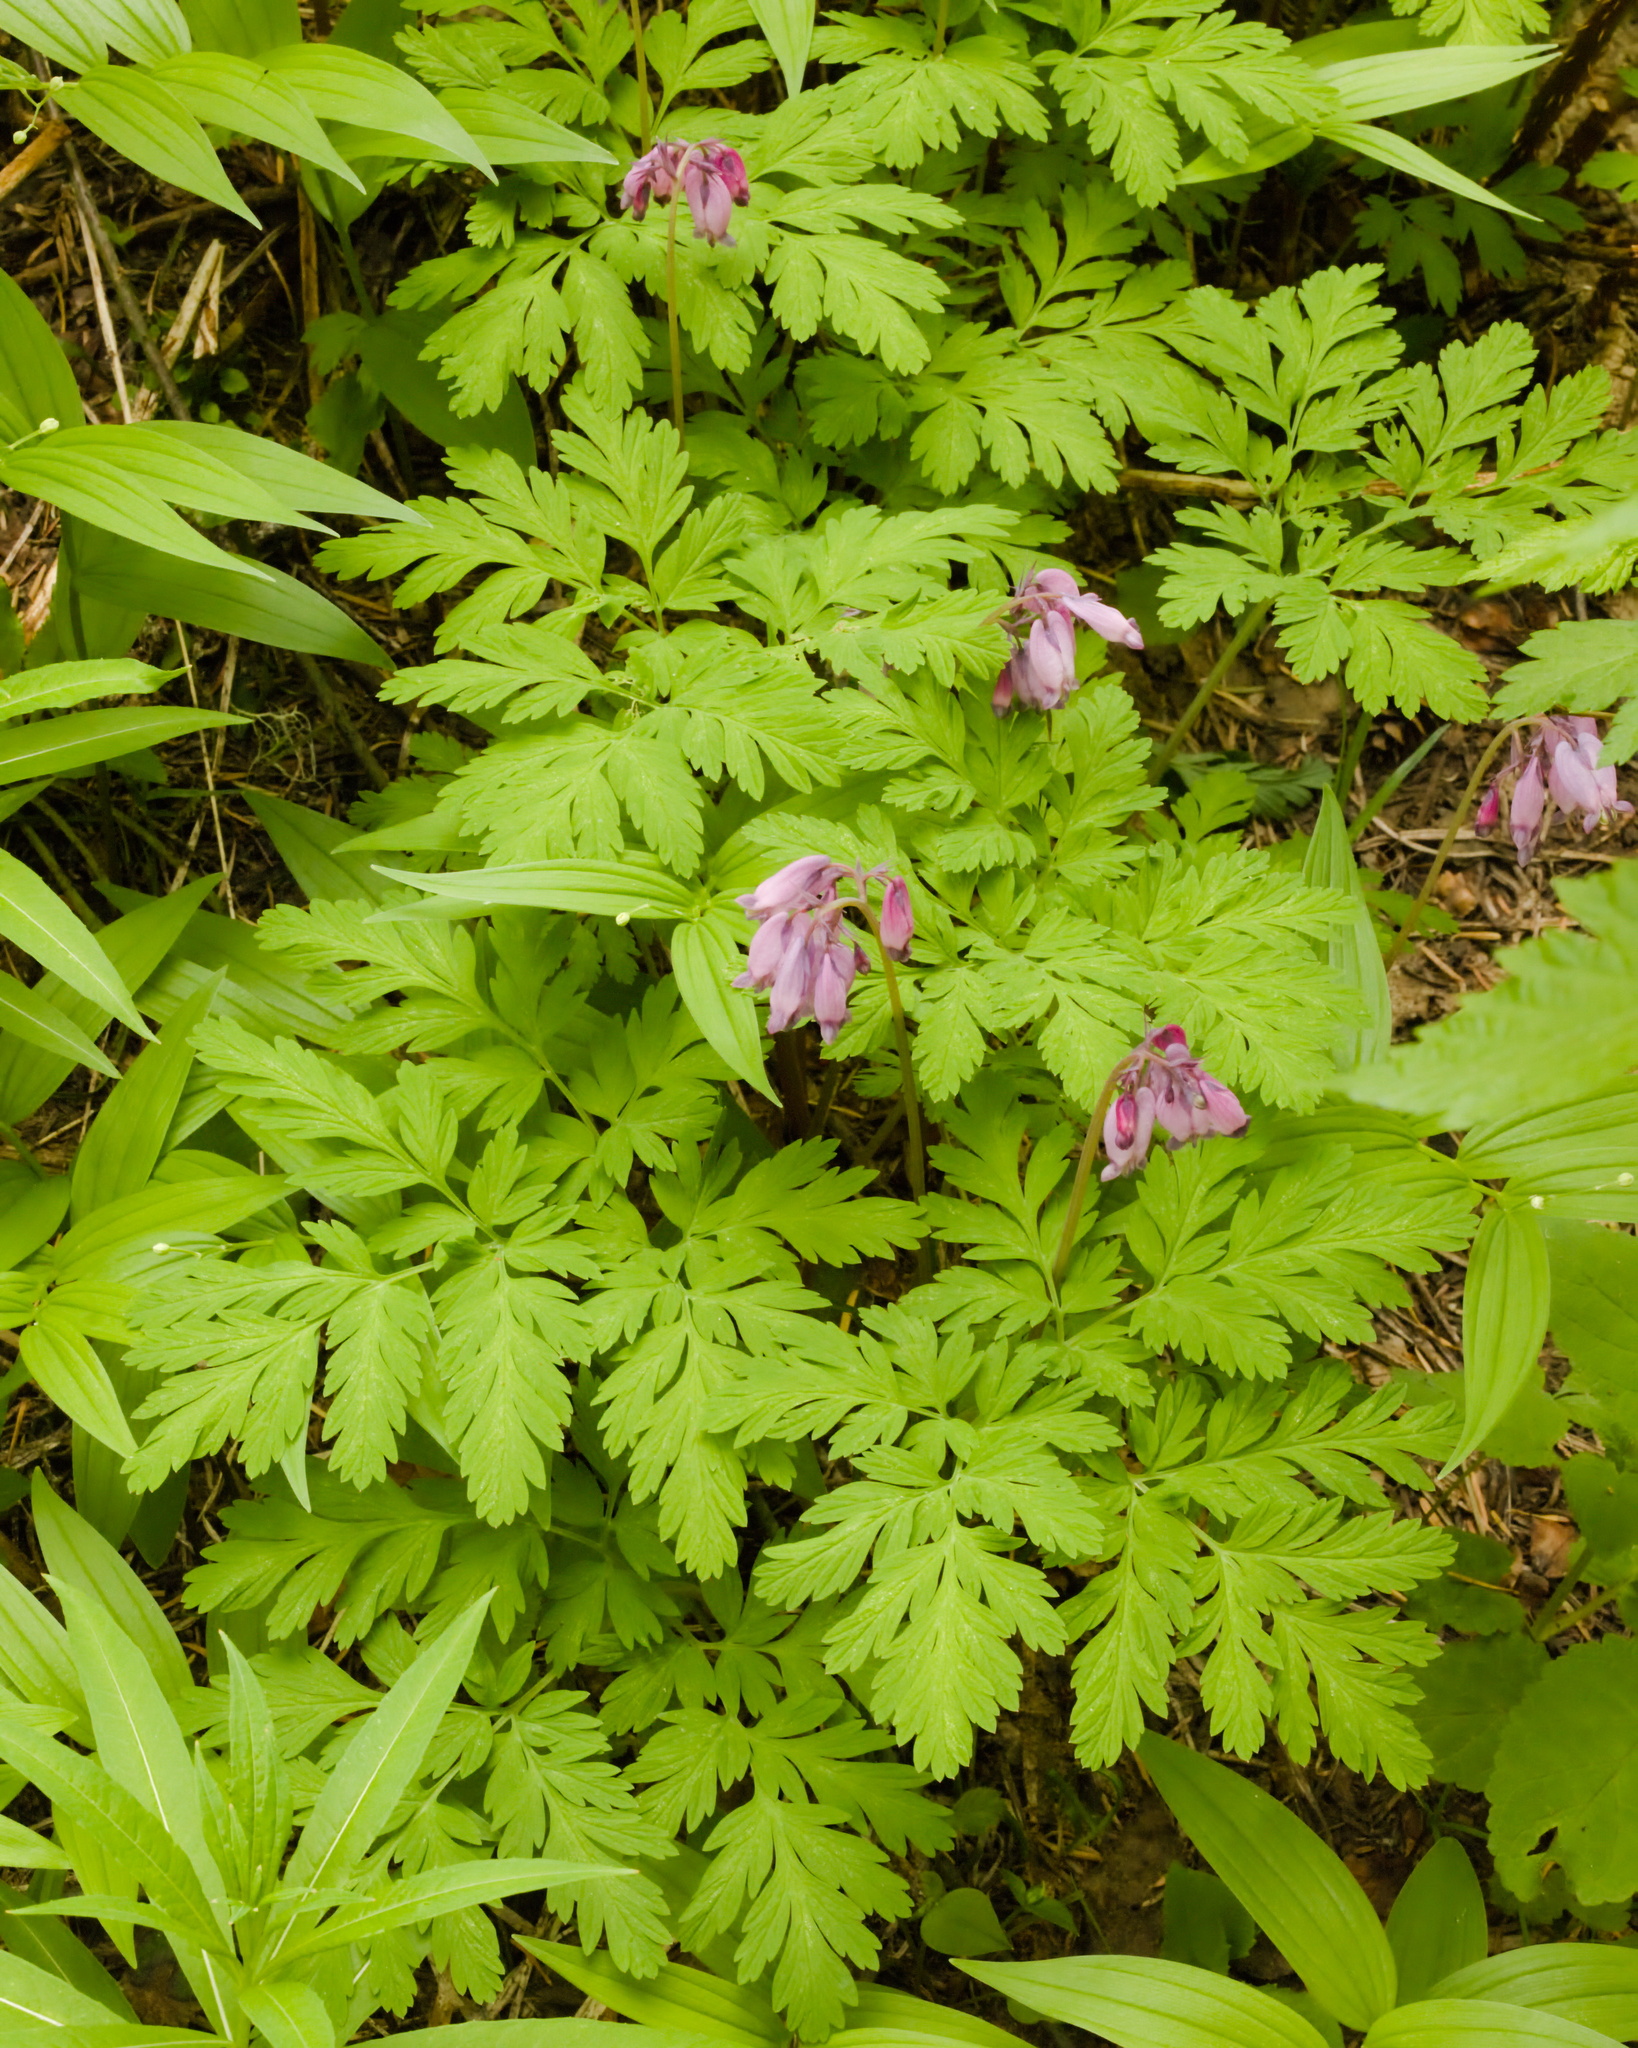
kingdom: Plantae
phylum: Tracheophyta
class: Magnoliopsida
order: Ranunculales
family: Papaveraceae
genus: Dicentra
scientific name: Dicentra formosa
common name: Bleeding-heart
